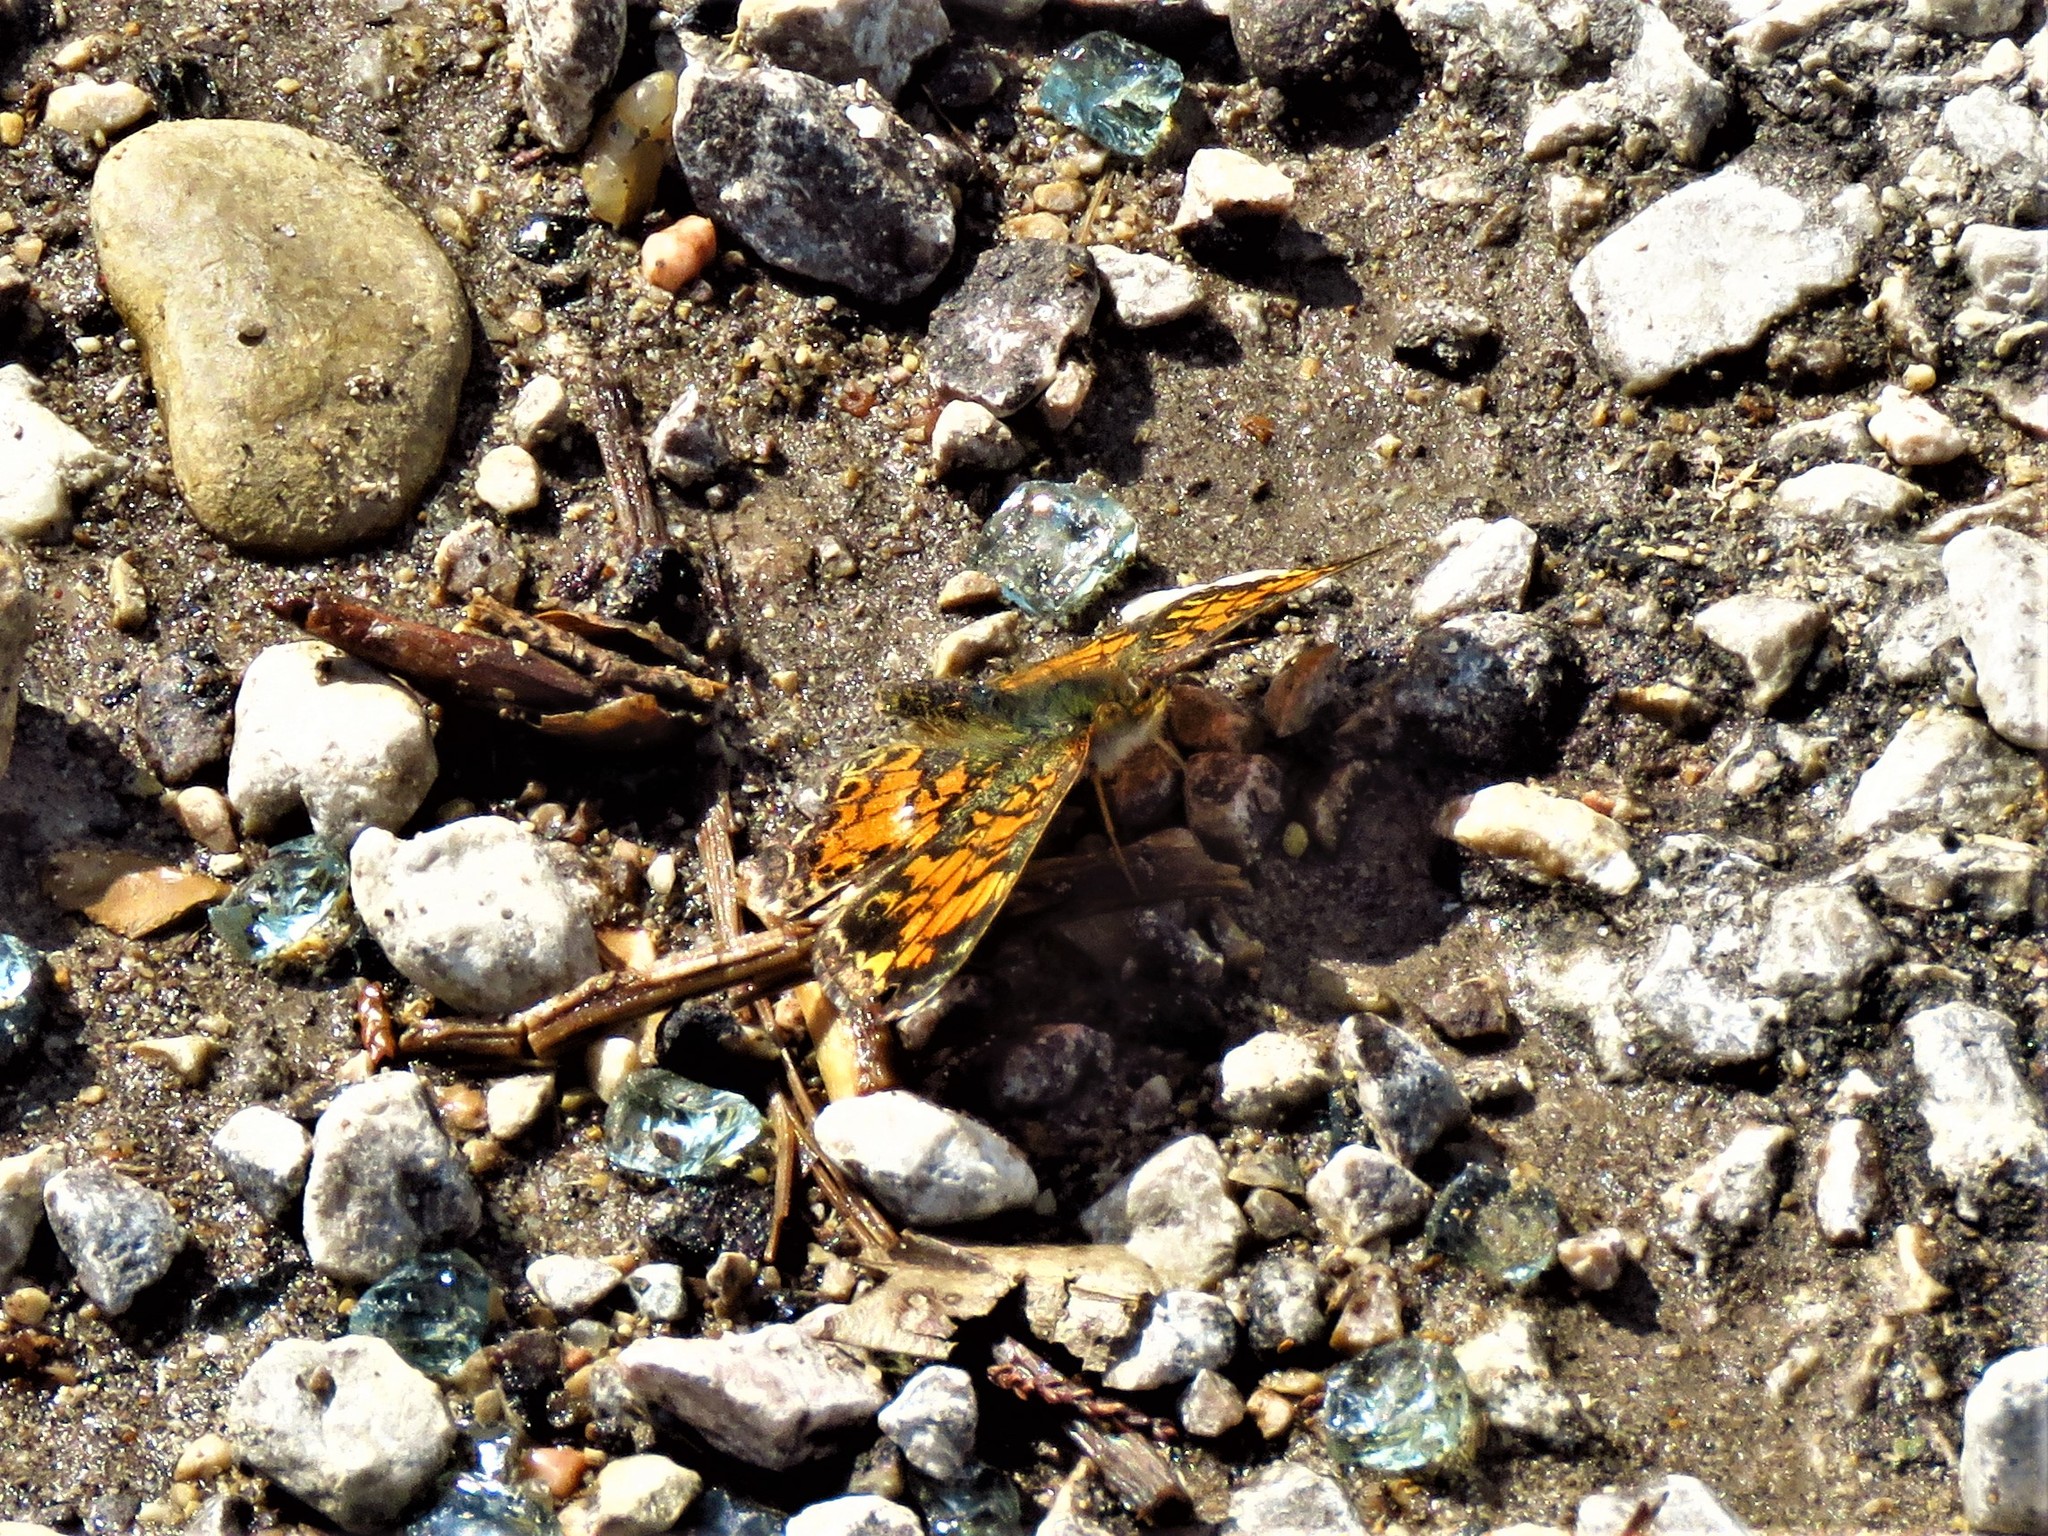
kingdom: Animalia
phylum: Arthropoda
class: Insecta
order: Lepidoptera
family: Nymphalidae
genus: Phyciodes
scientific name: Phyciodes tharos
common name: Pearl crescent
